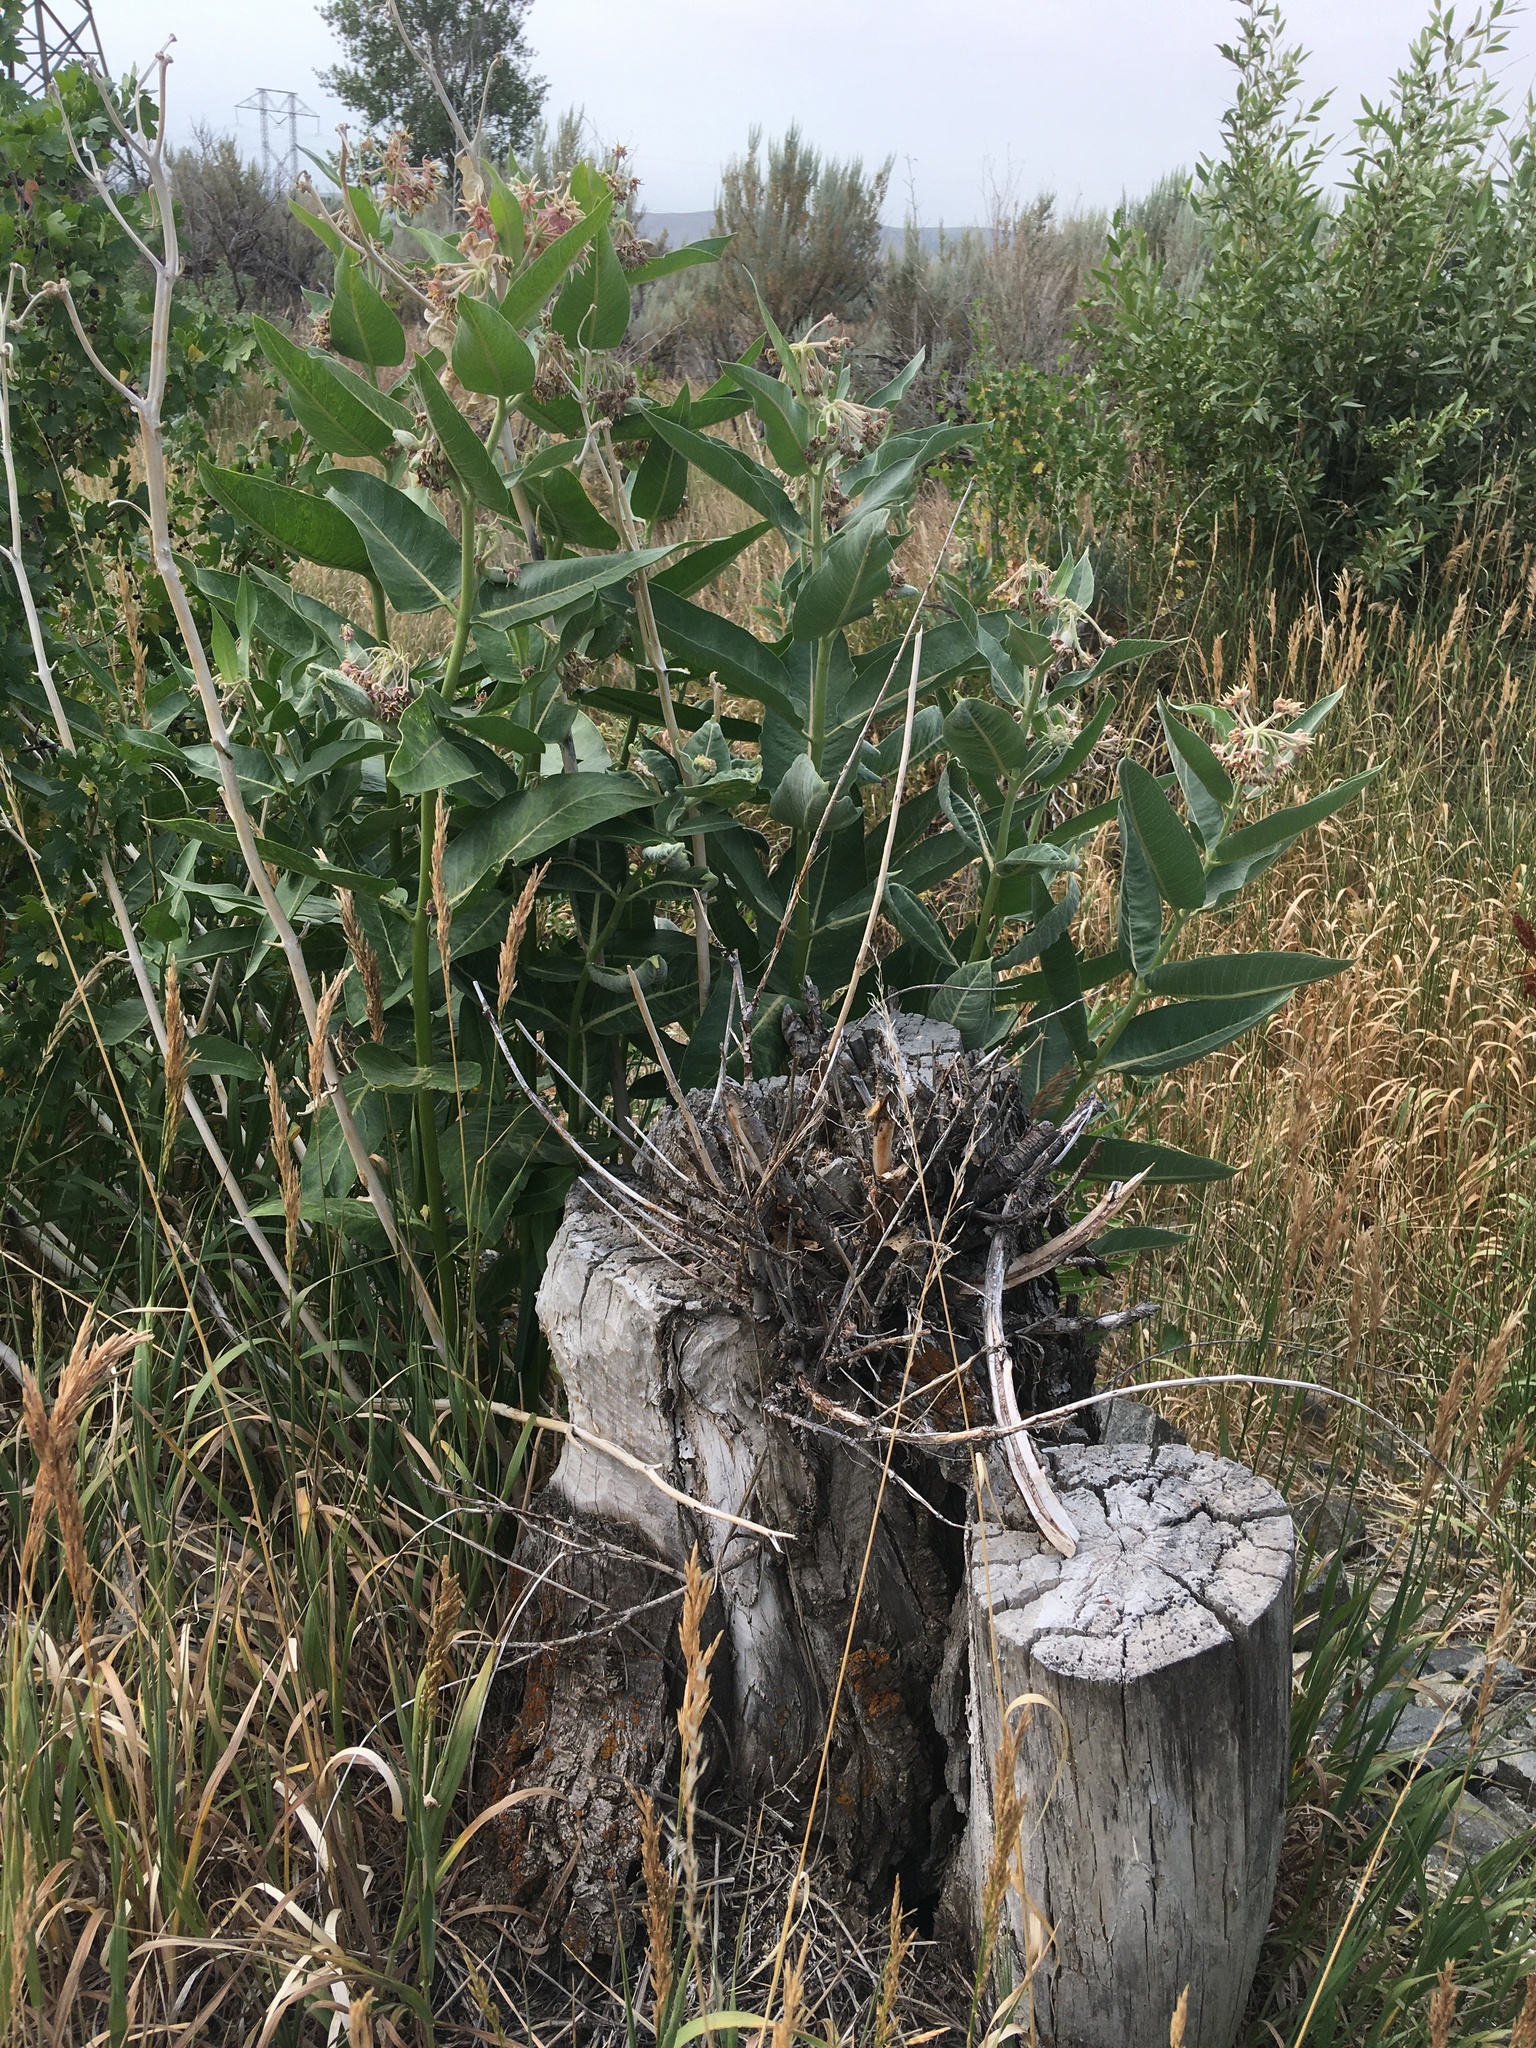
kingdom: Plantae
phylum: Tracheophyta
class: Magnoliopsida
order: Gentianales
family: Apocynaceae
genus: Asclepias
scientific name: Asclepias speciosa
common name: Showy milkweed
